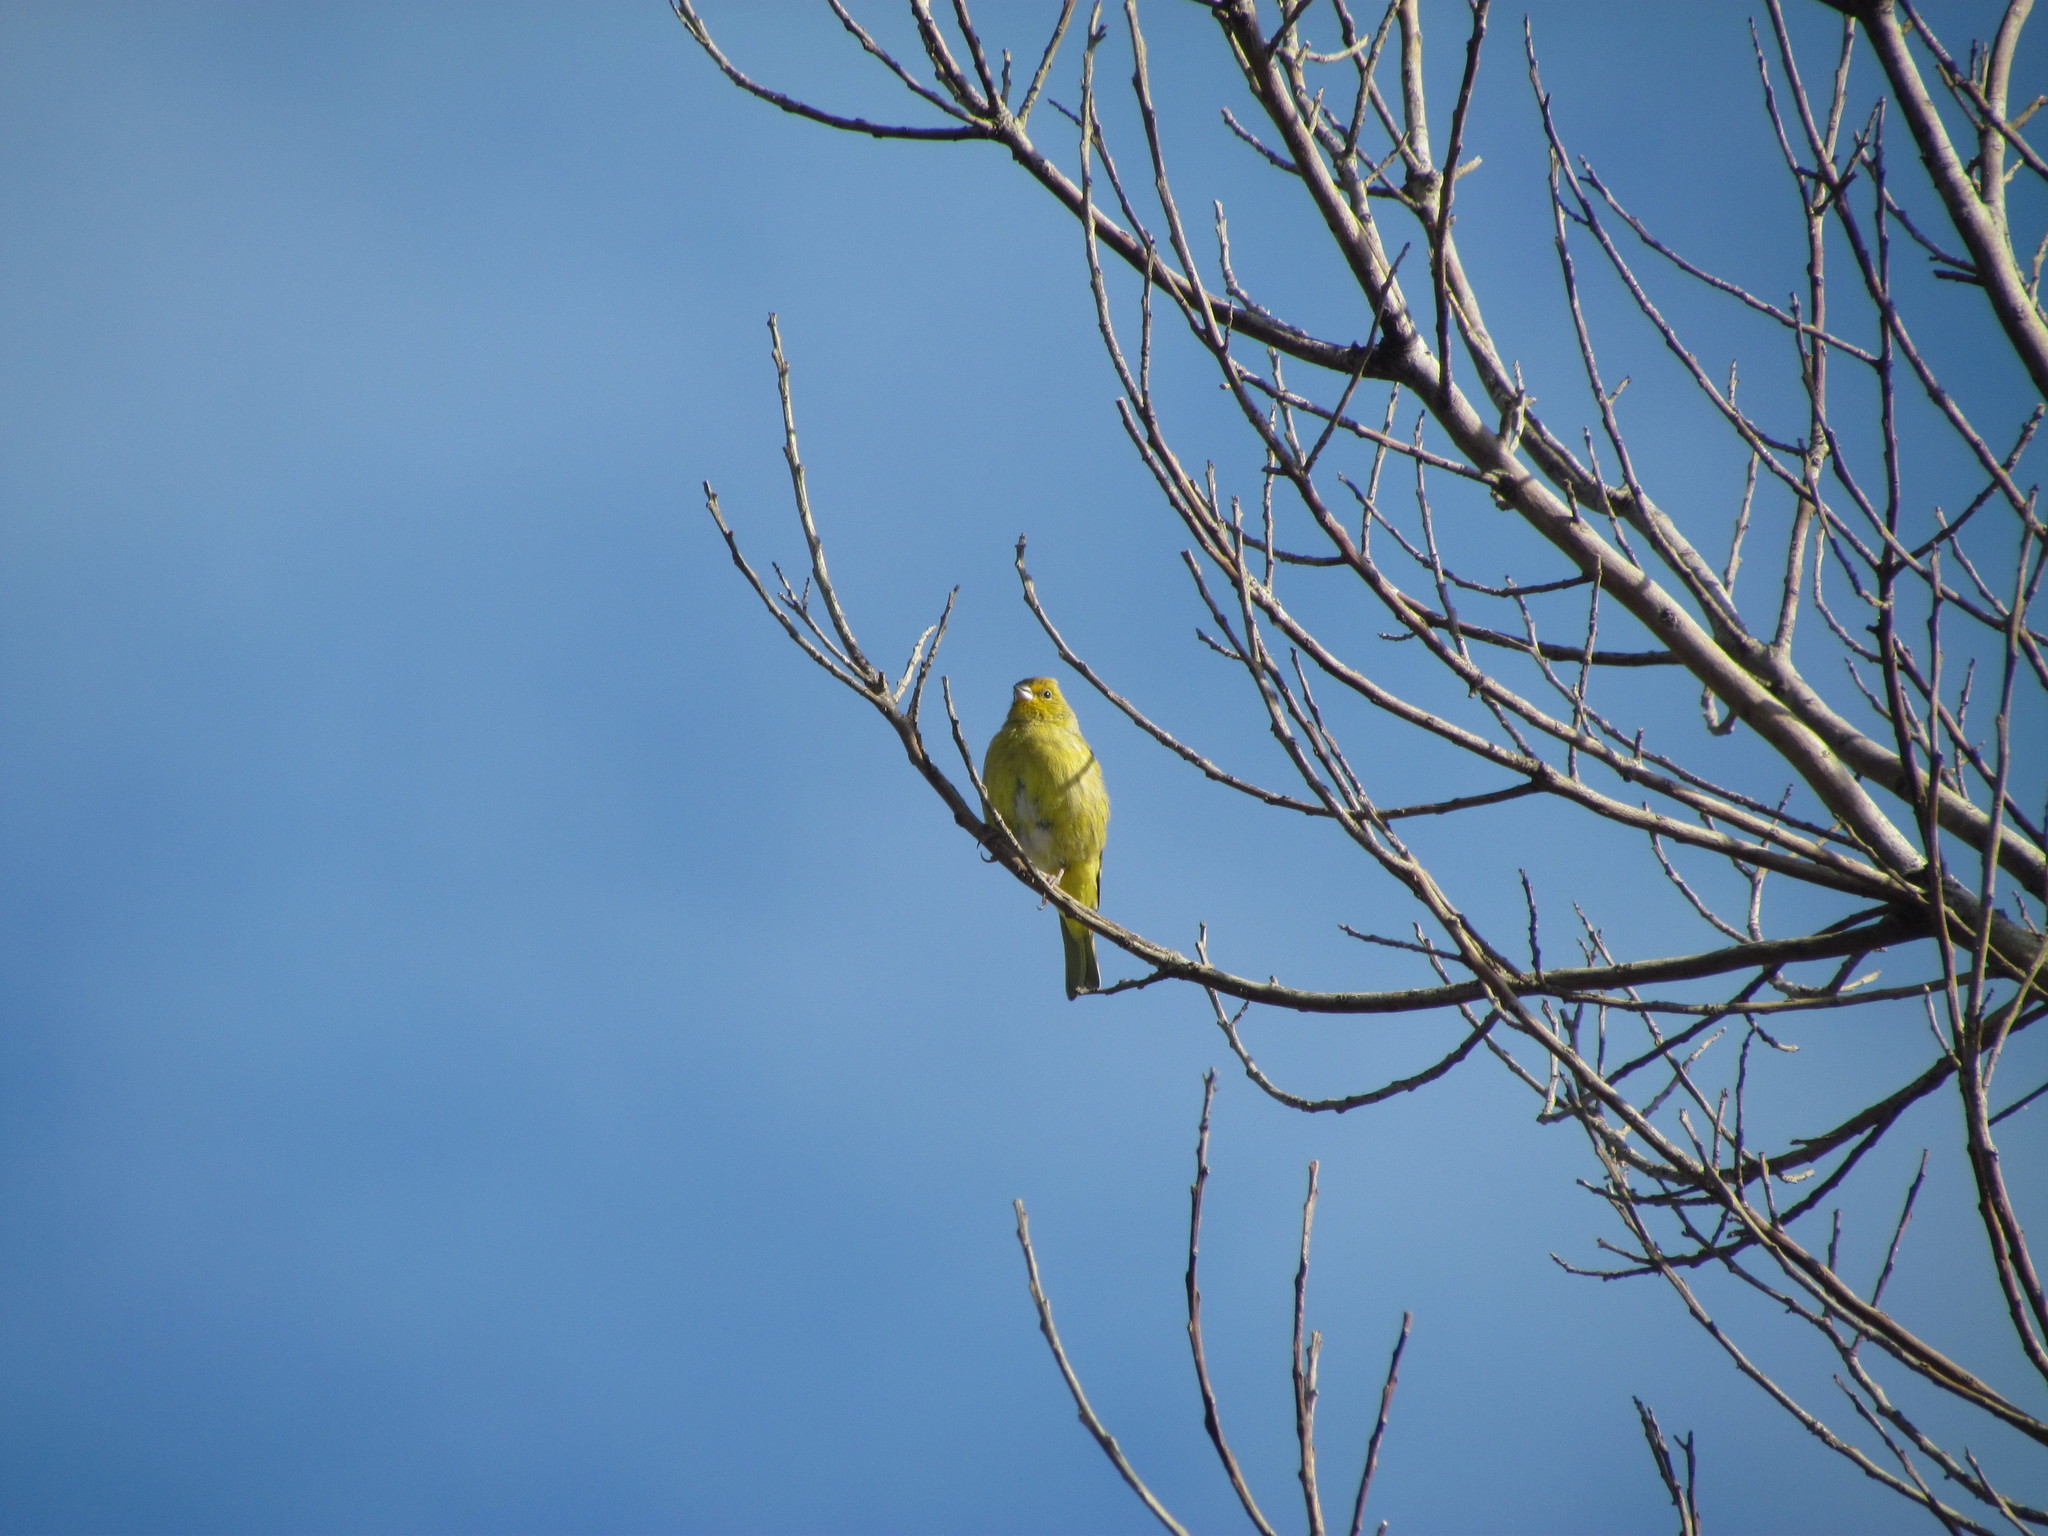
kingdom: Animalia
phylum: Chordata
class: Aves
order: Passeriformes
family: Thraupidae
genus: Sicalis
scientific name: Sicalis flaveola
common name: Saffron finch
